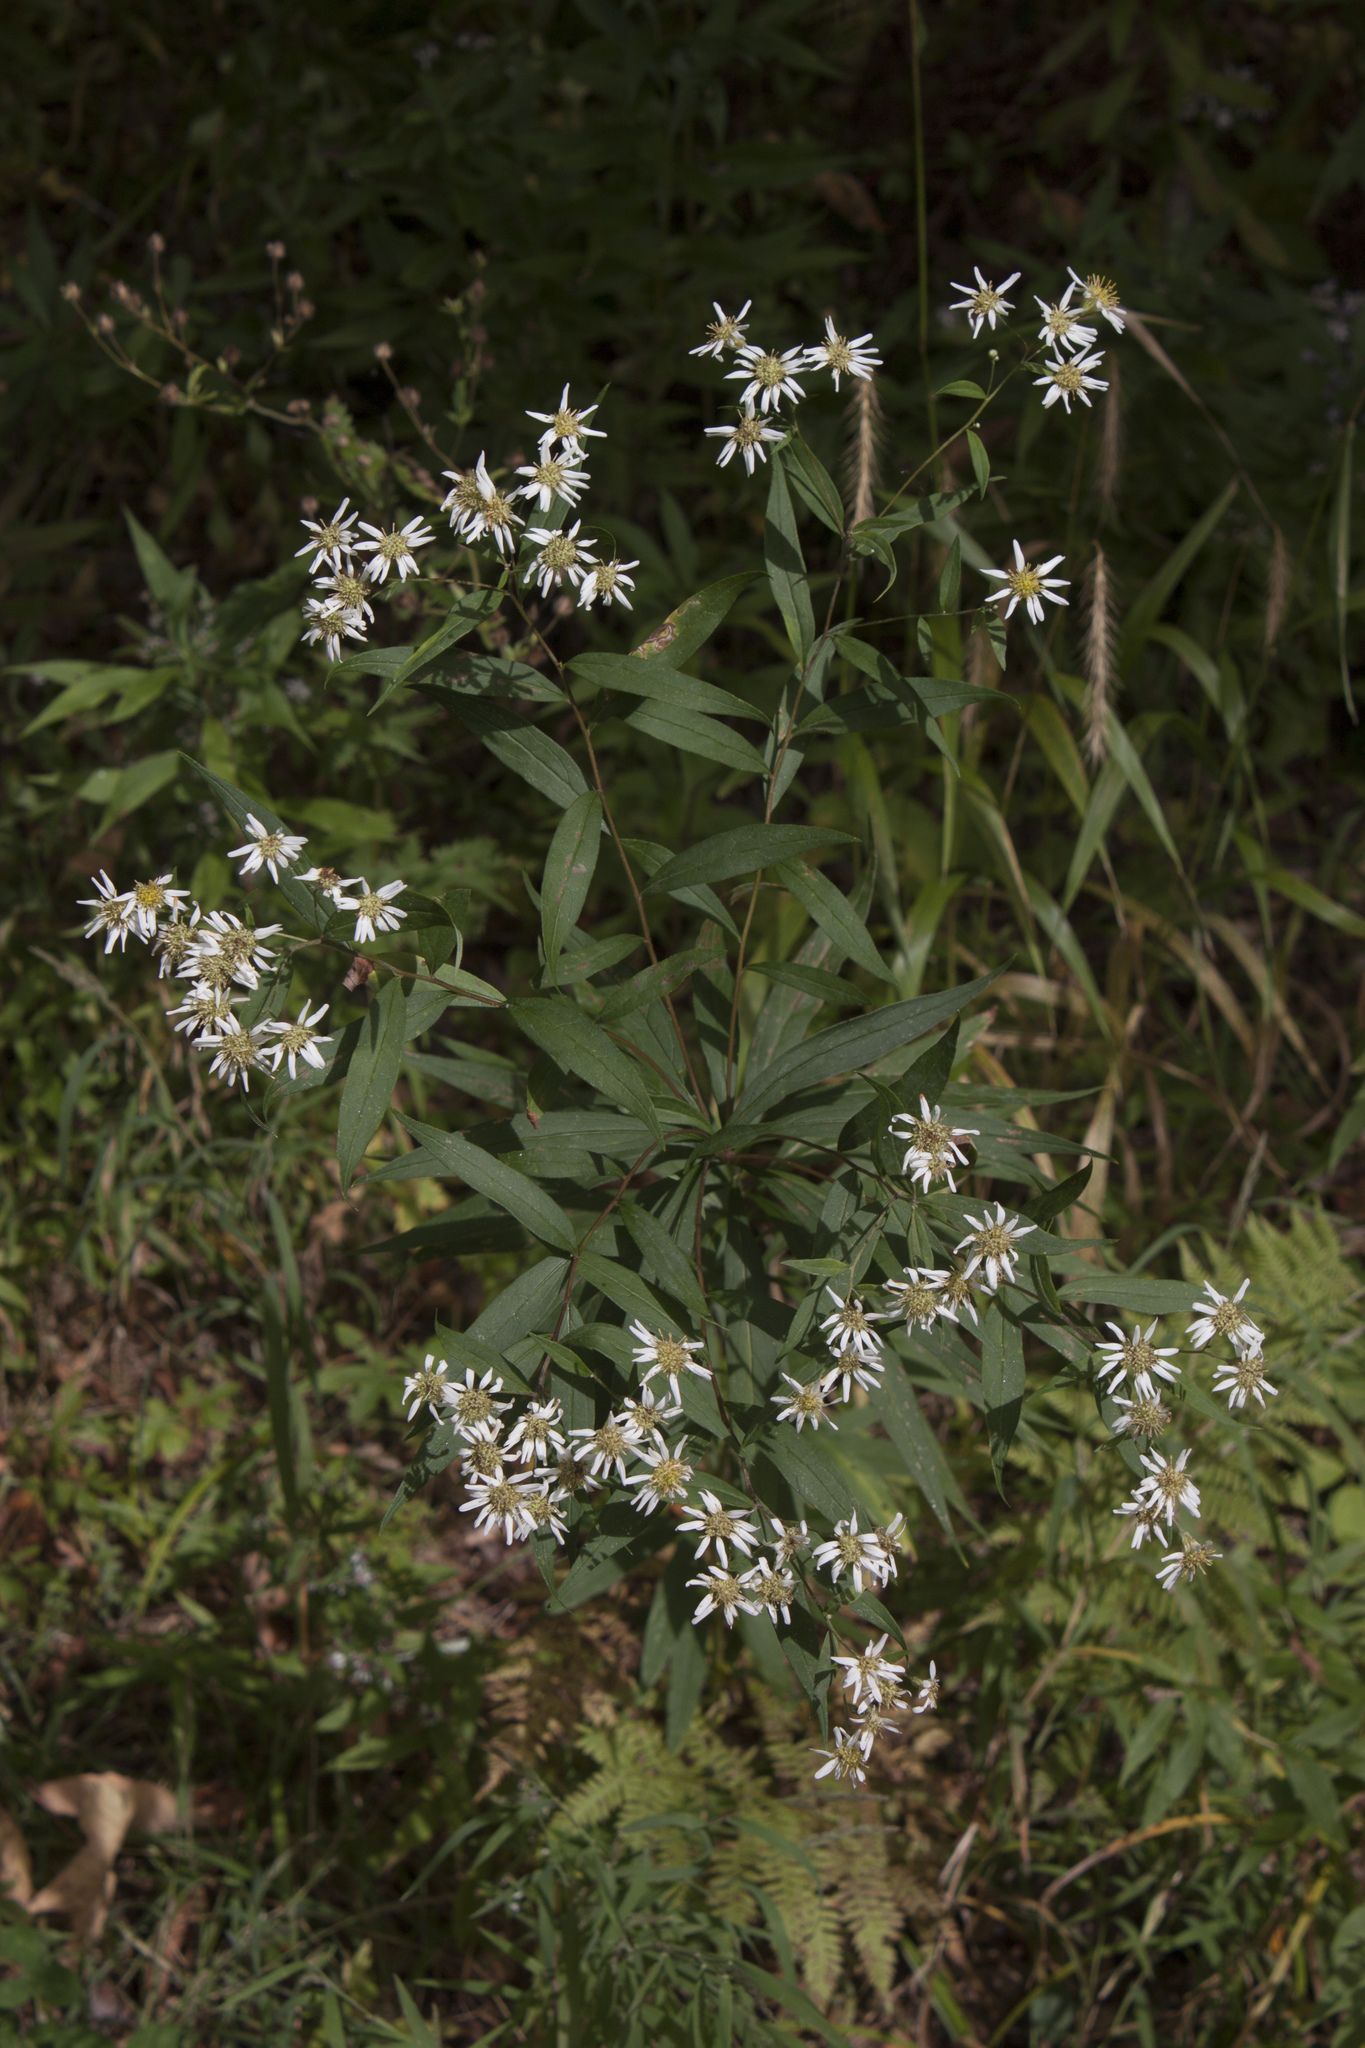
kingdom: Plantae
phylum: Tracheophyta
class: Magnoliopsida
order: Asterales
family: Asteraceae
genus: Doellingeria
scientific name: Doellingeria umbellata
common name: Flat-top white aster
